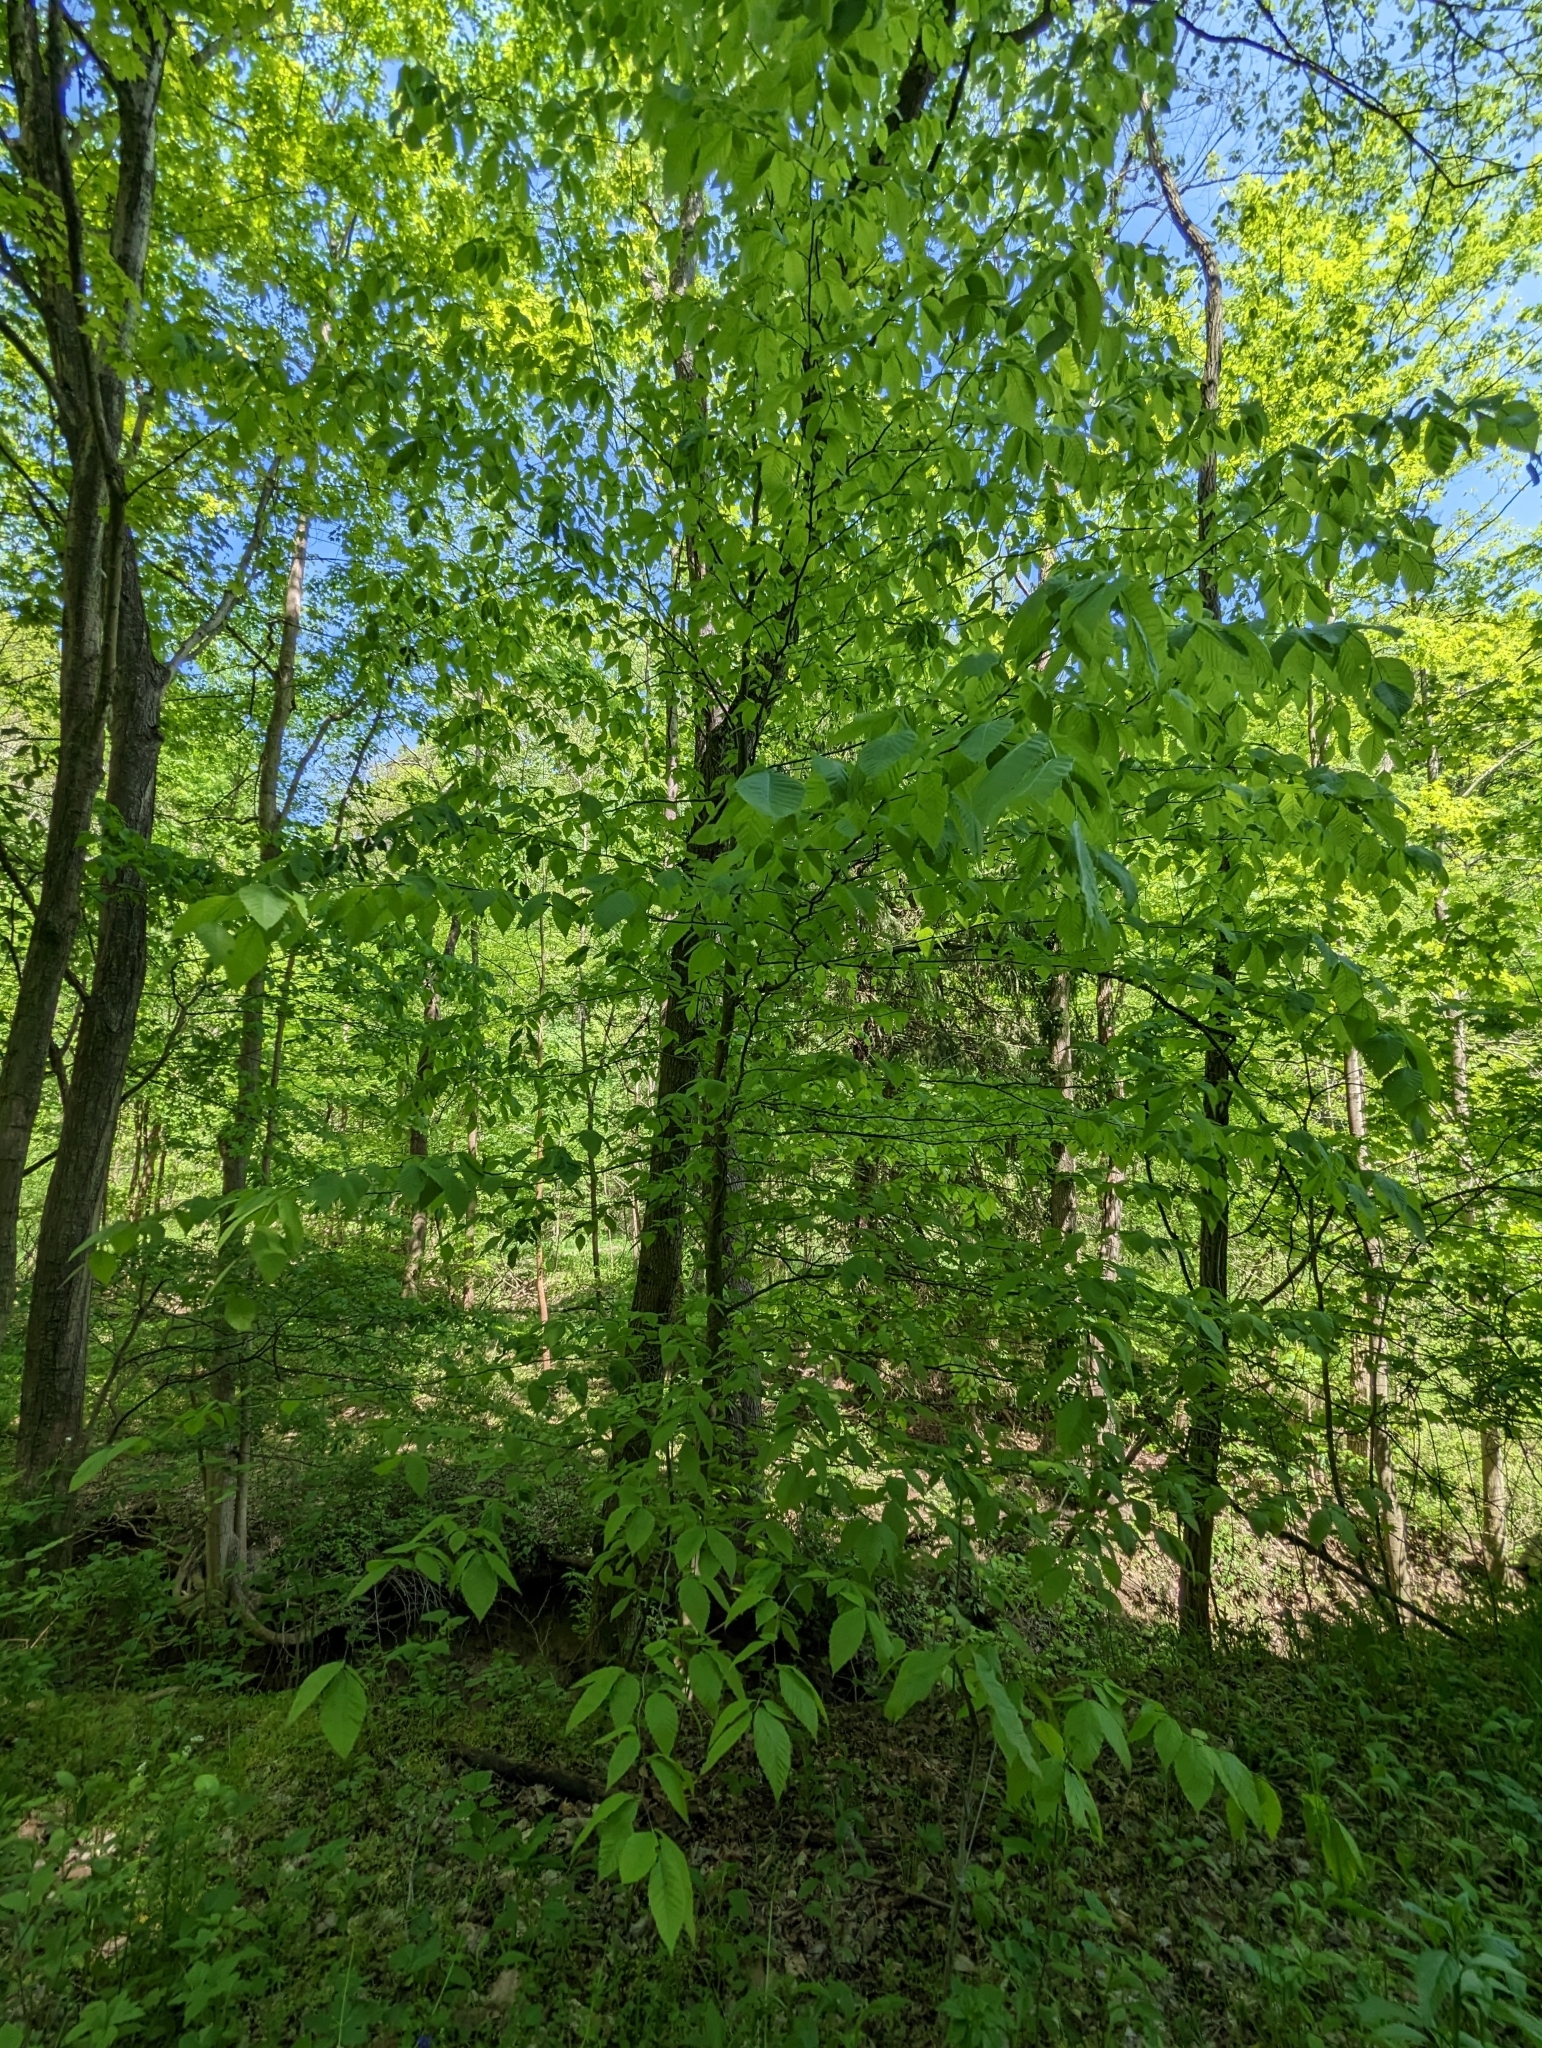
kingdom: Plantae
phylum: Tracheophyta
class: Magnoliopsida
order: Fagales
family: Fagaceae
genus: Fagus
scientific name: Fagus grandifolia
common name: American beech
